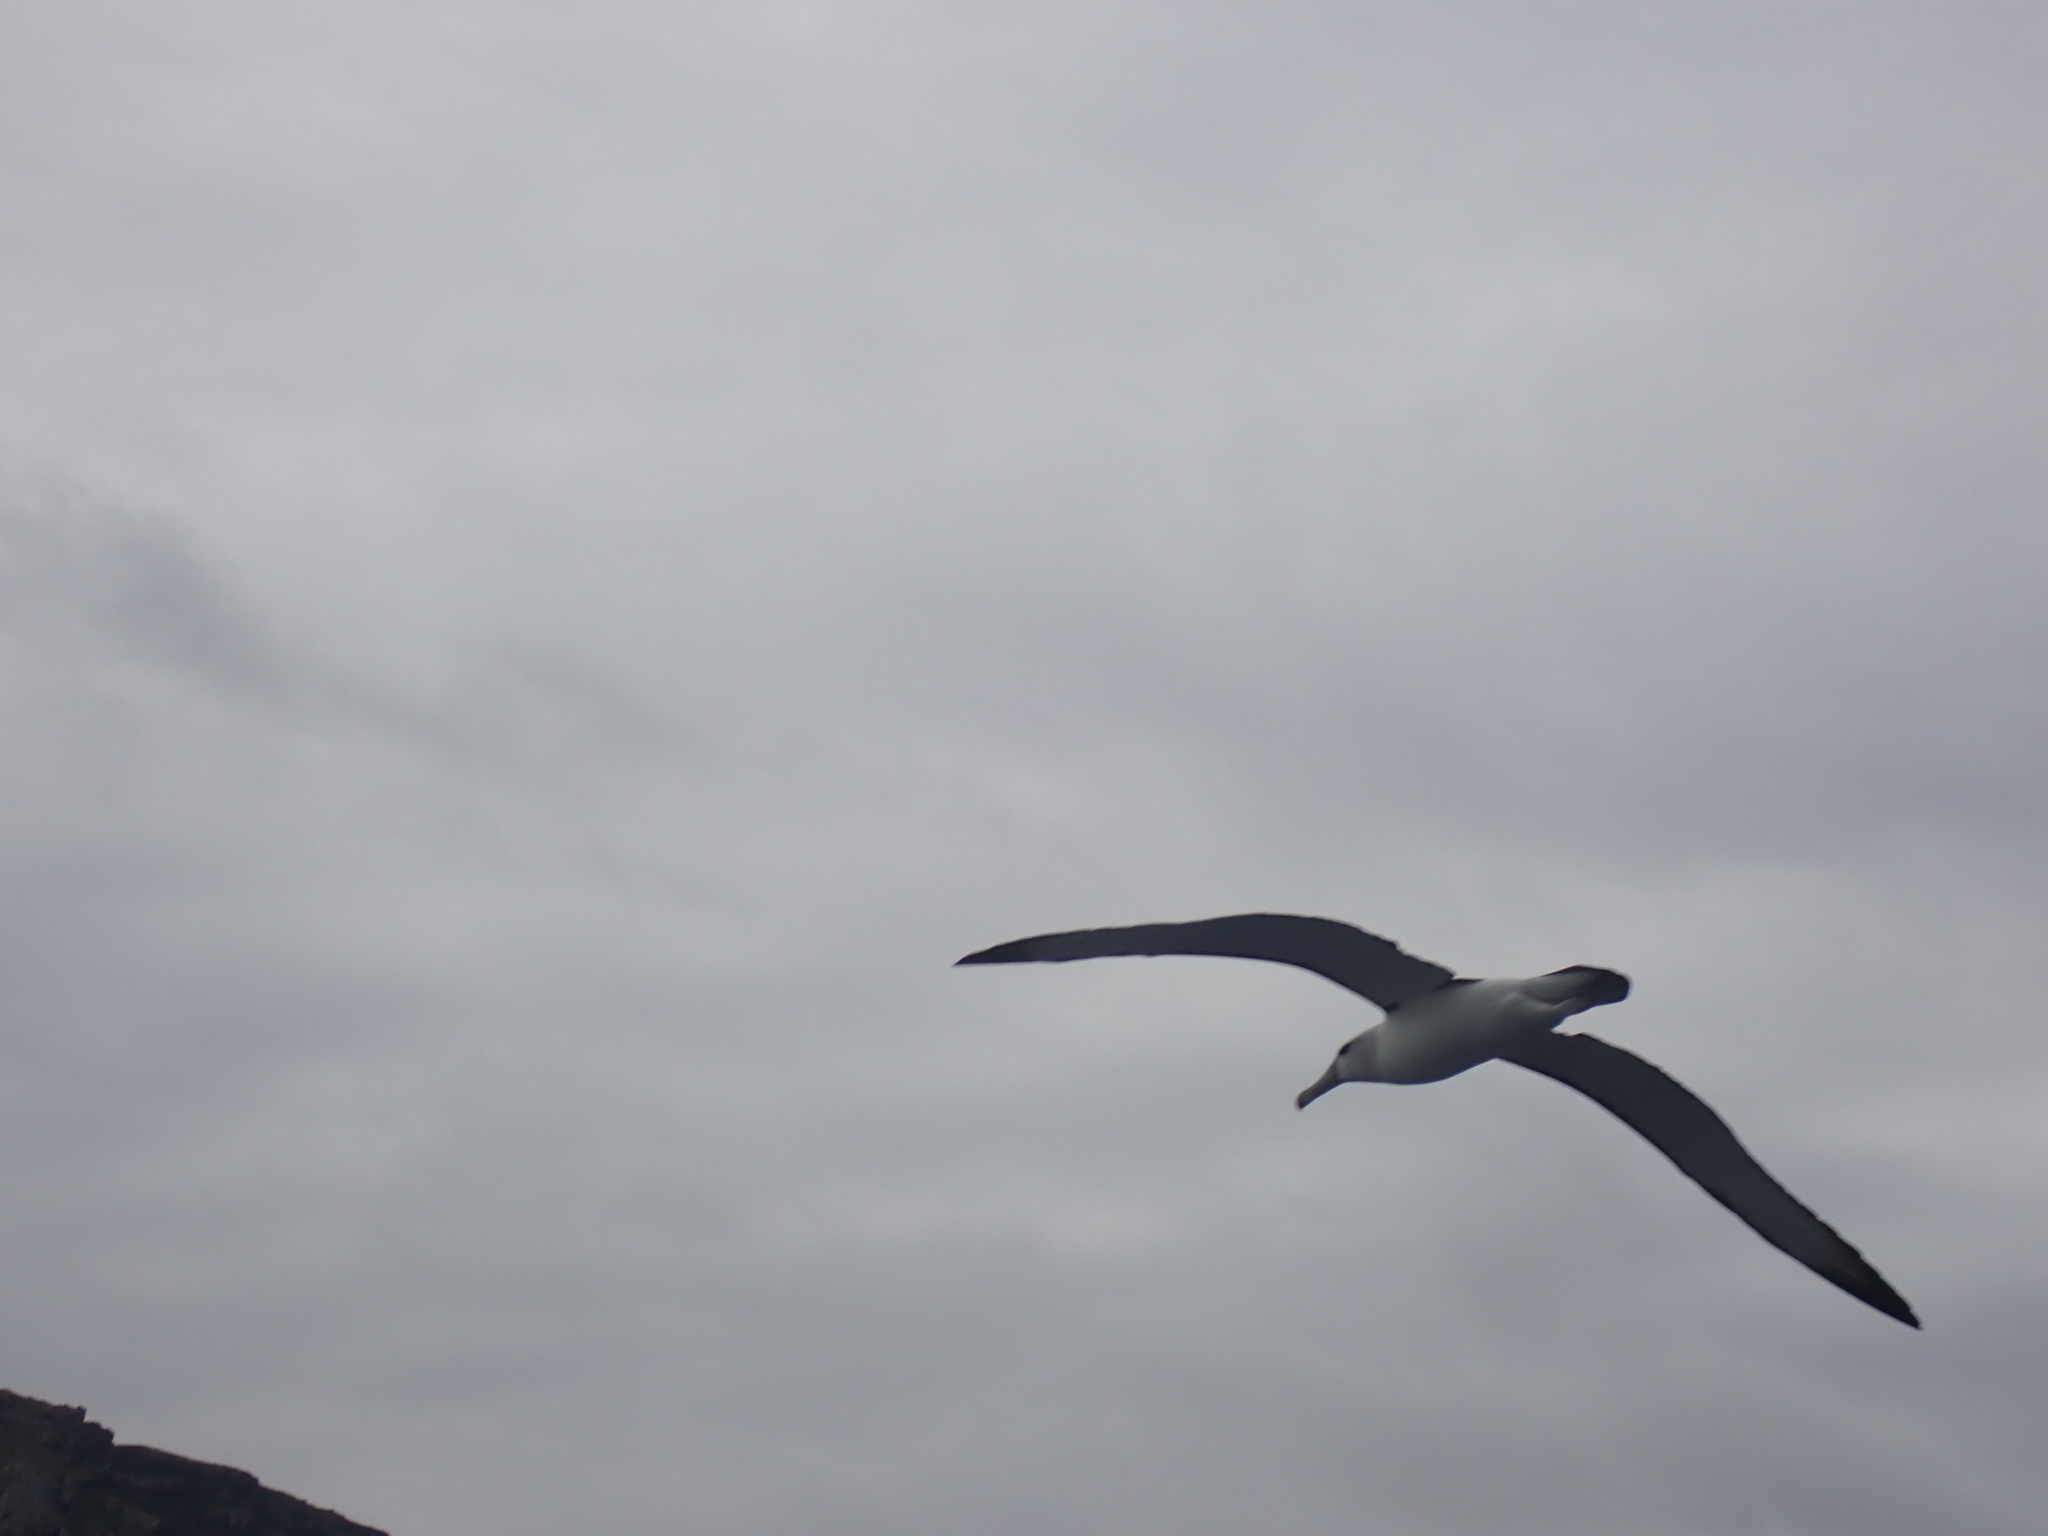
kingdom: Animalia
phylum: Chordata
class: Aves
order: Procellariiformes
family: Diomedeidae
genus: Thalassarche
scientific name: Thalassarche cauta
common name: Shy albatross
